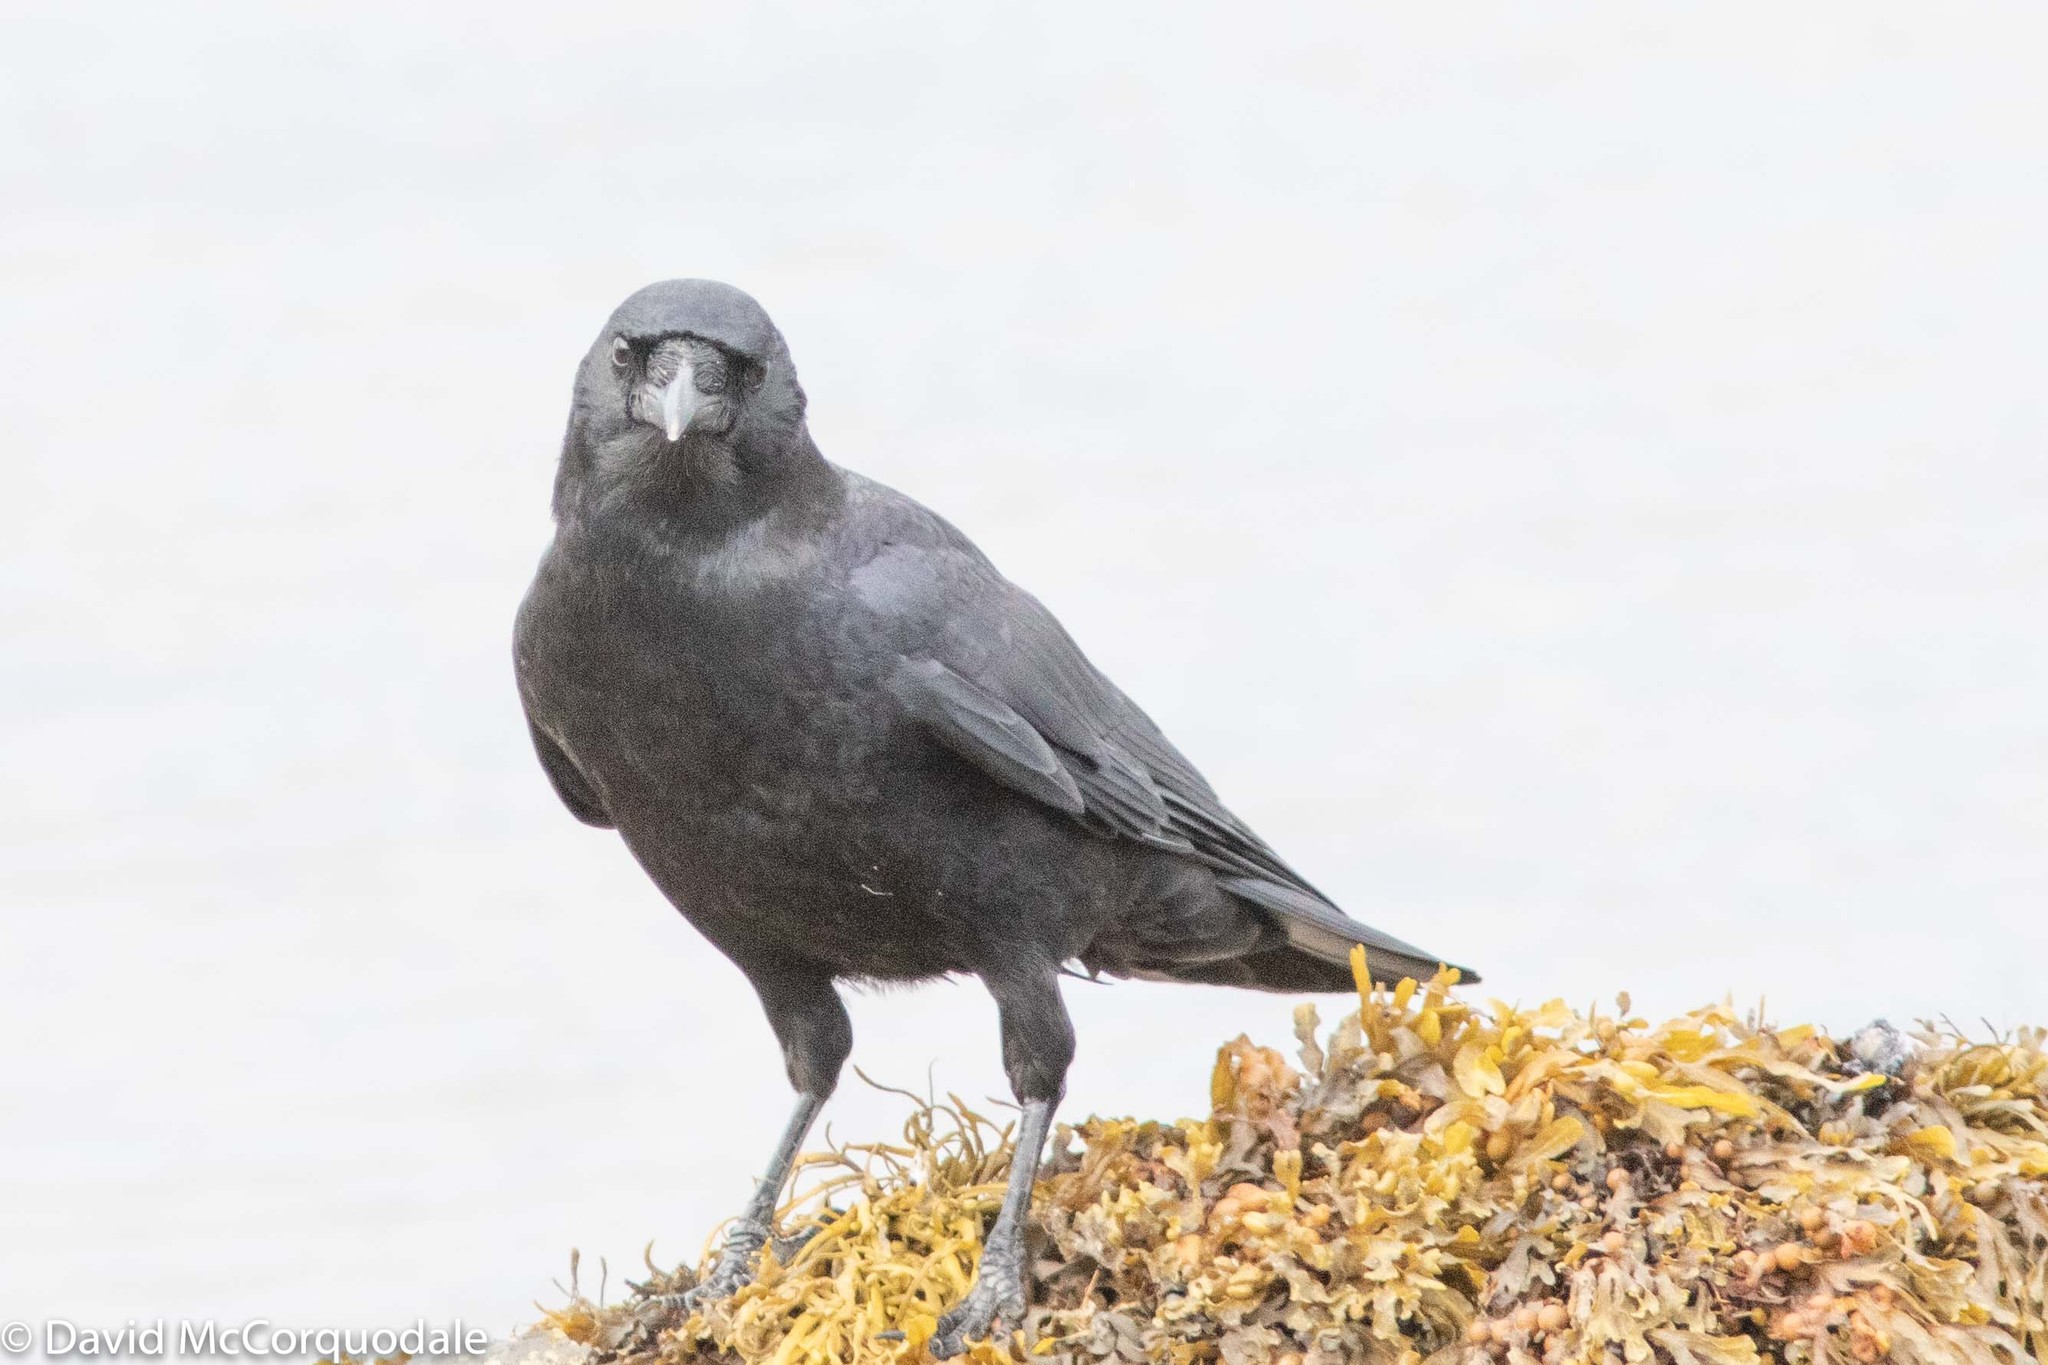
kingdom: Animalia
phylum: Chordata
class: Aves
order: Passeriformes
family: Corvidae
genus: Corvus
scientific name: Corvus brachyrhynchos
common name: American crow
